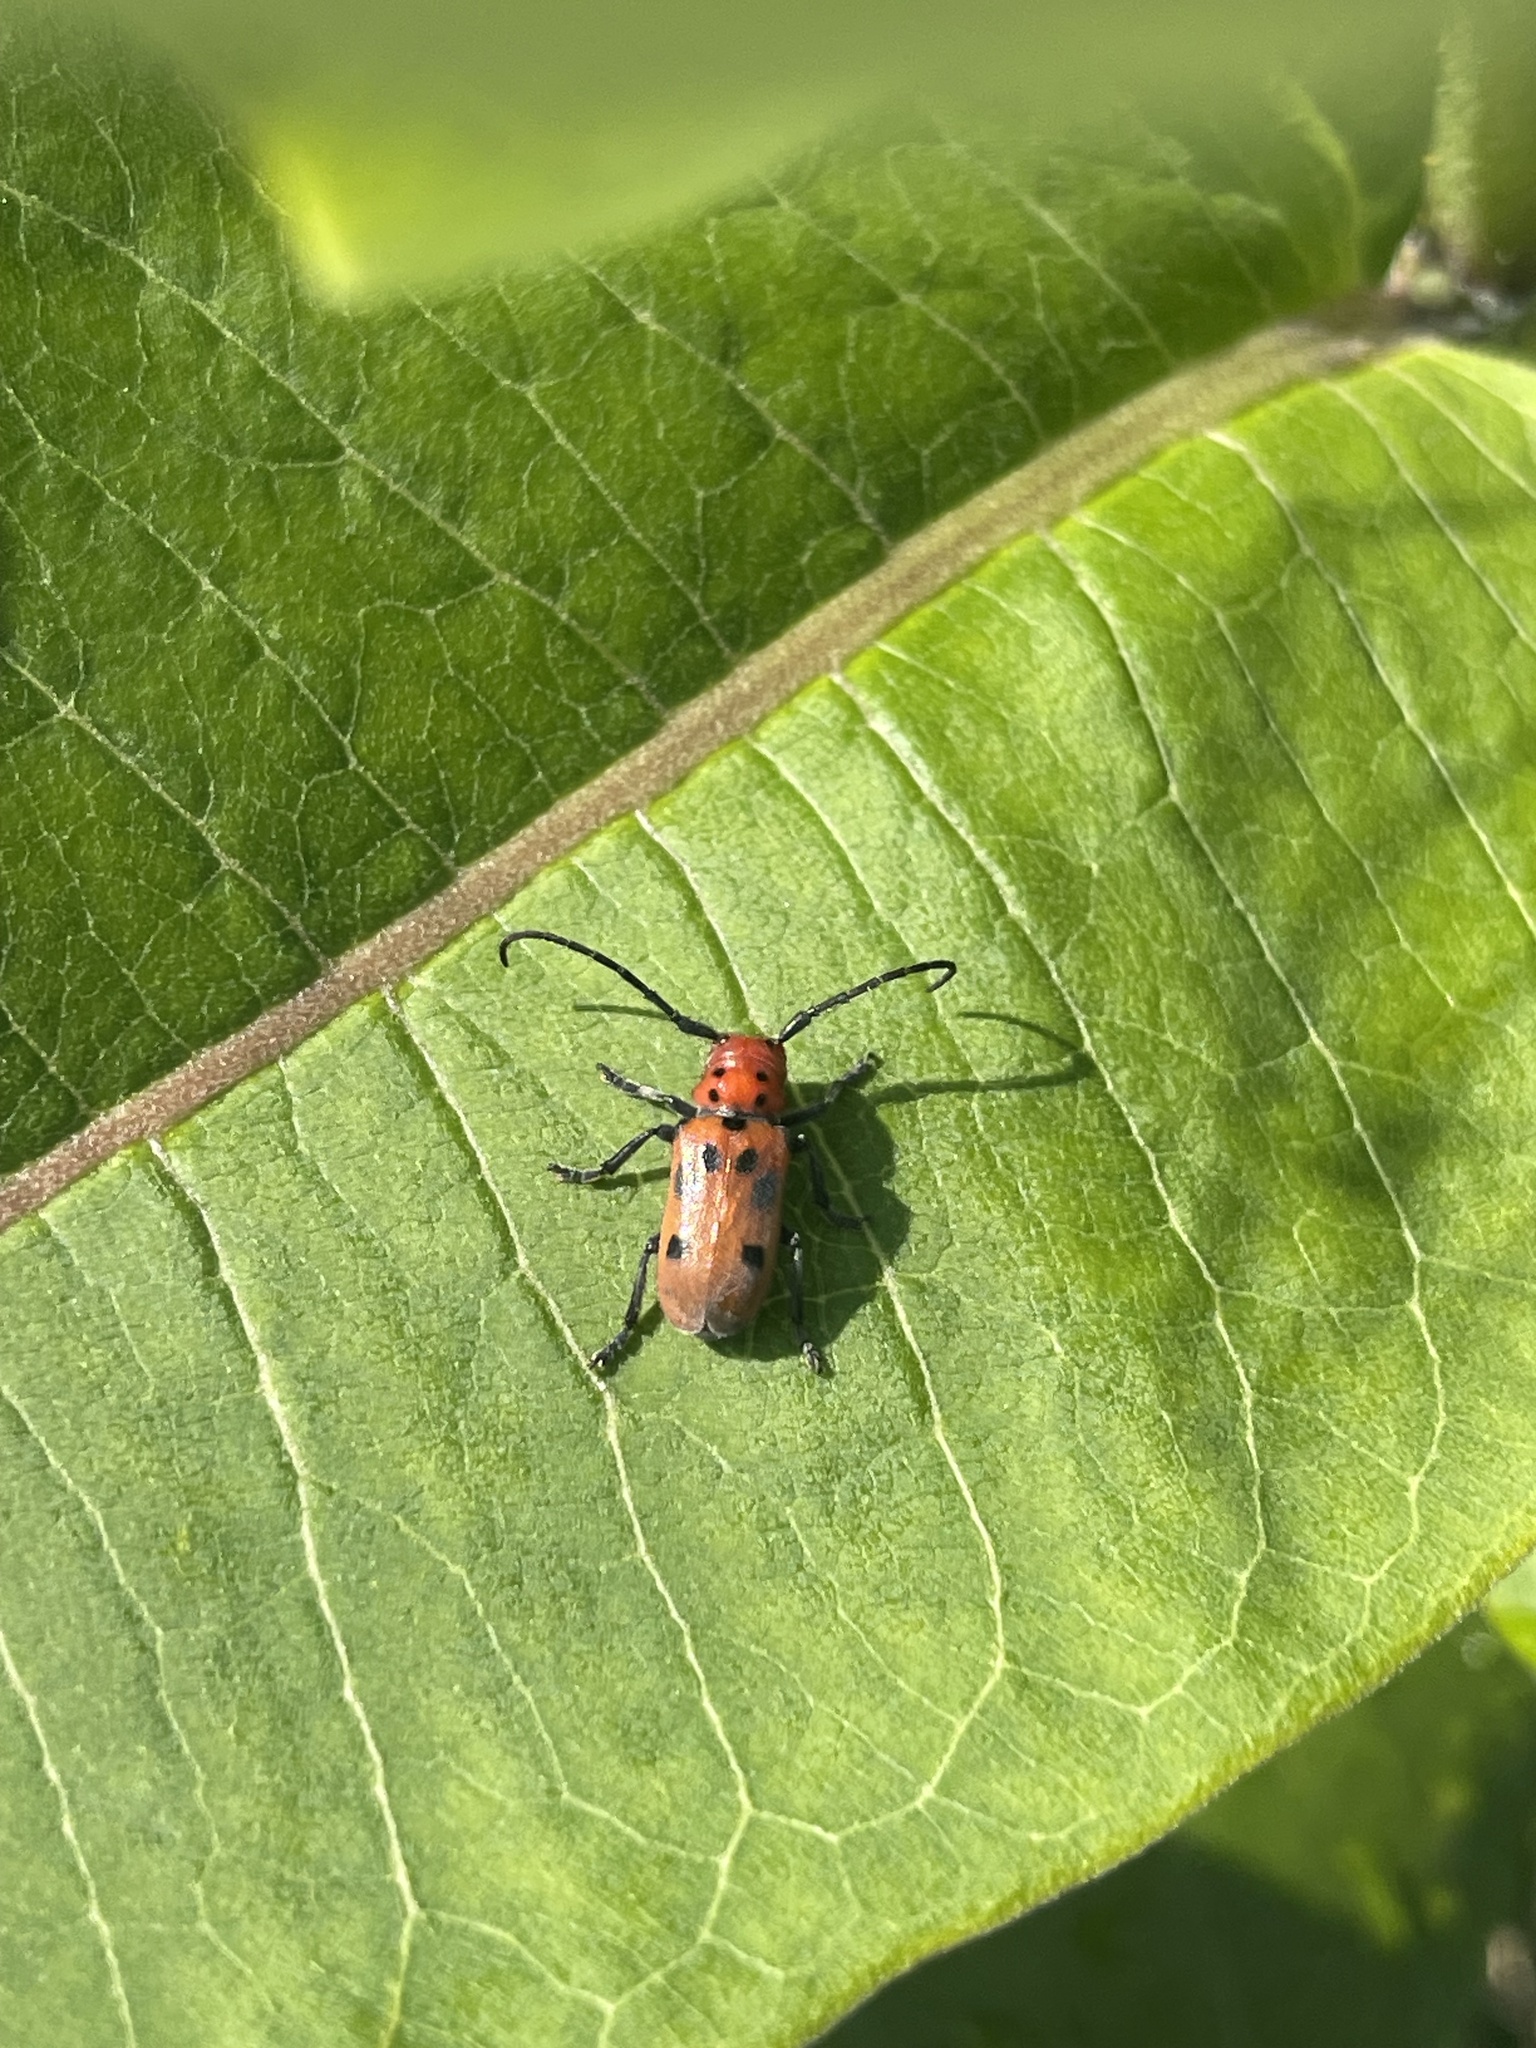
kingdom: Animalia
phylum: Arthropoda
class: Insecta
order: Coleoptera
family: Cerambycidae
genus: Tetraopes
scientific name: Tetraopes tetrophthalmus
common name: Red milkweed beetle
